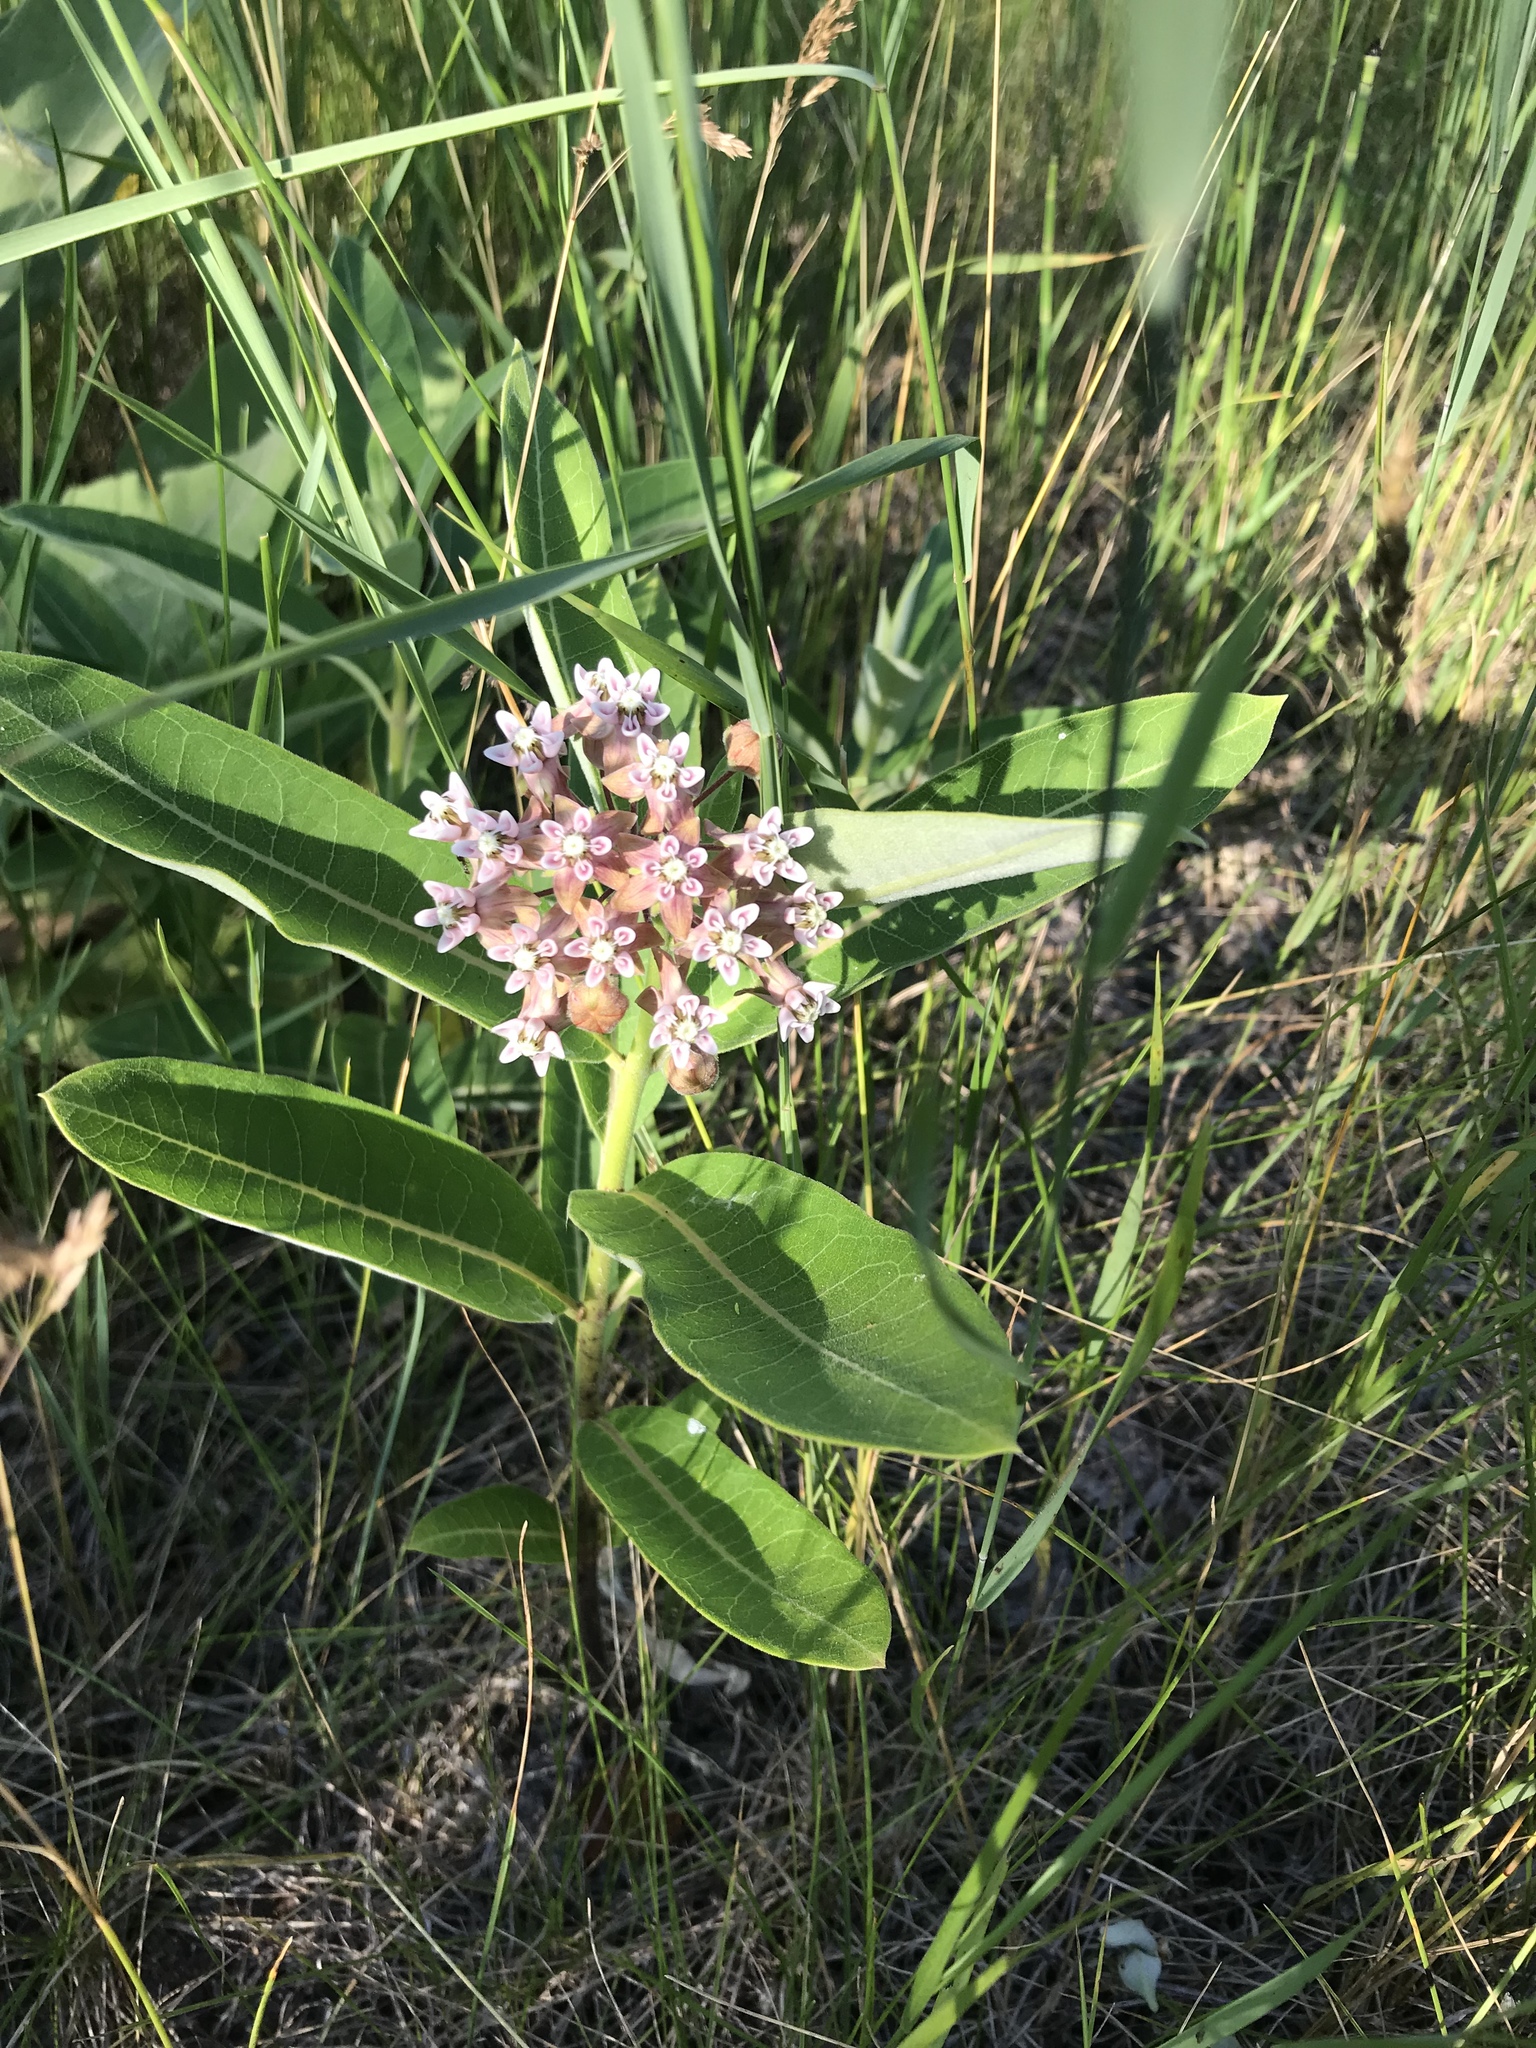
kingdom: Plantae
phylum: Tracheophyta
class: Magnoliopsida
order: Gentianales
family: Apocynaceae
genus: Asclepias
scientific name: Asclepias syriaca
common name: Common milkweed
